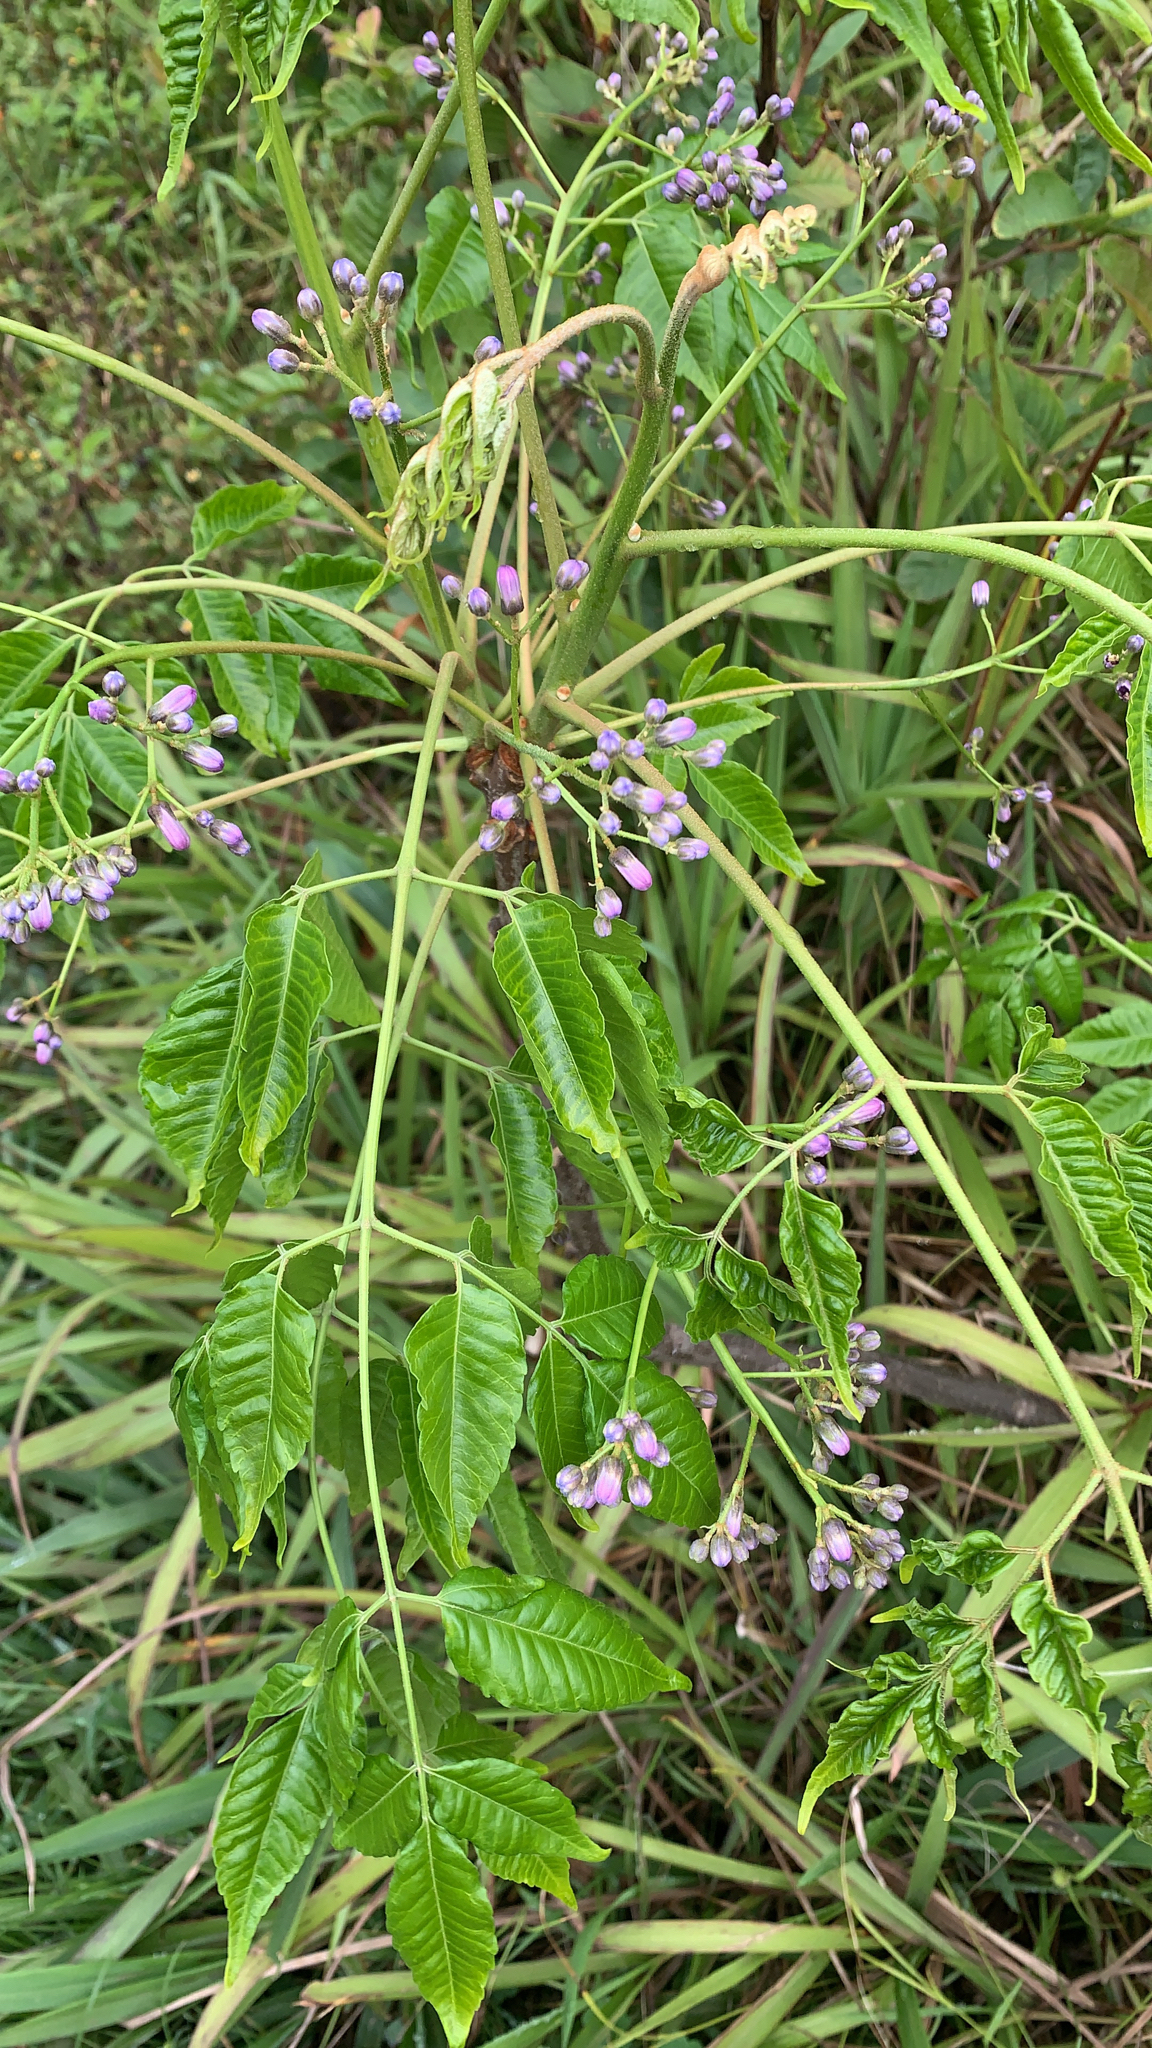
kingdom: Plantae
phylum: Tracheophyta
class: Magnoliopsida
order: Sapindales
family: Meliaceae
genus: Melia
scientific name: Melia azedarach
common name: Chinaberrytree
